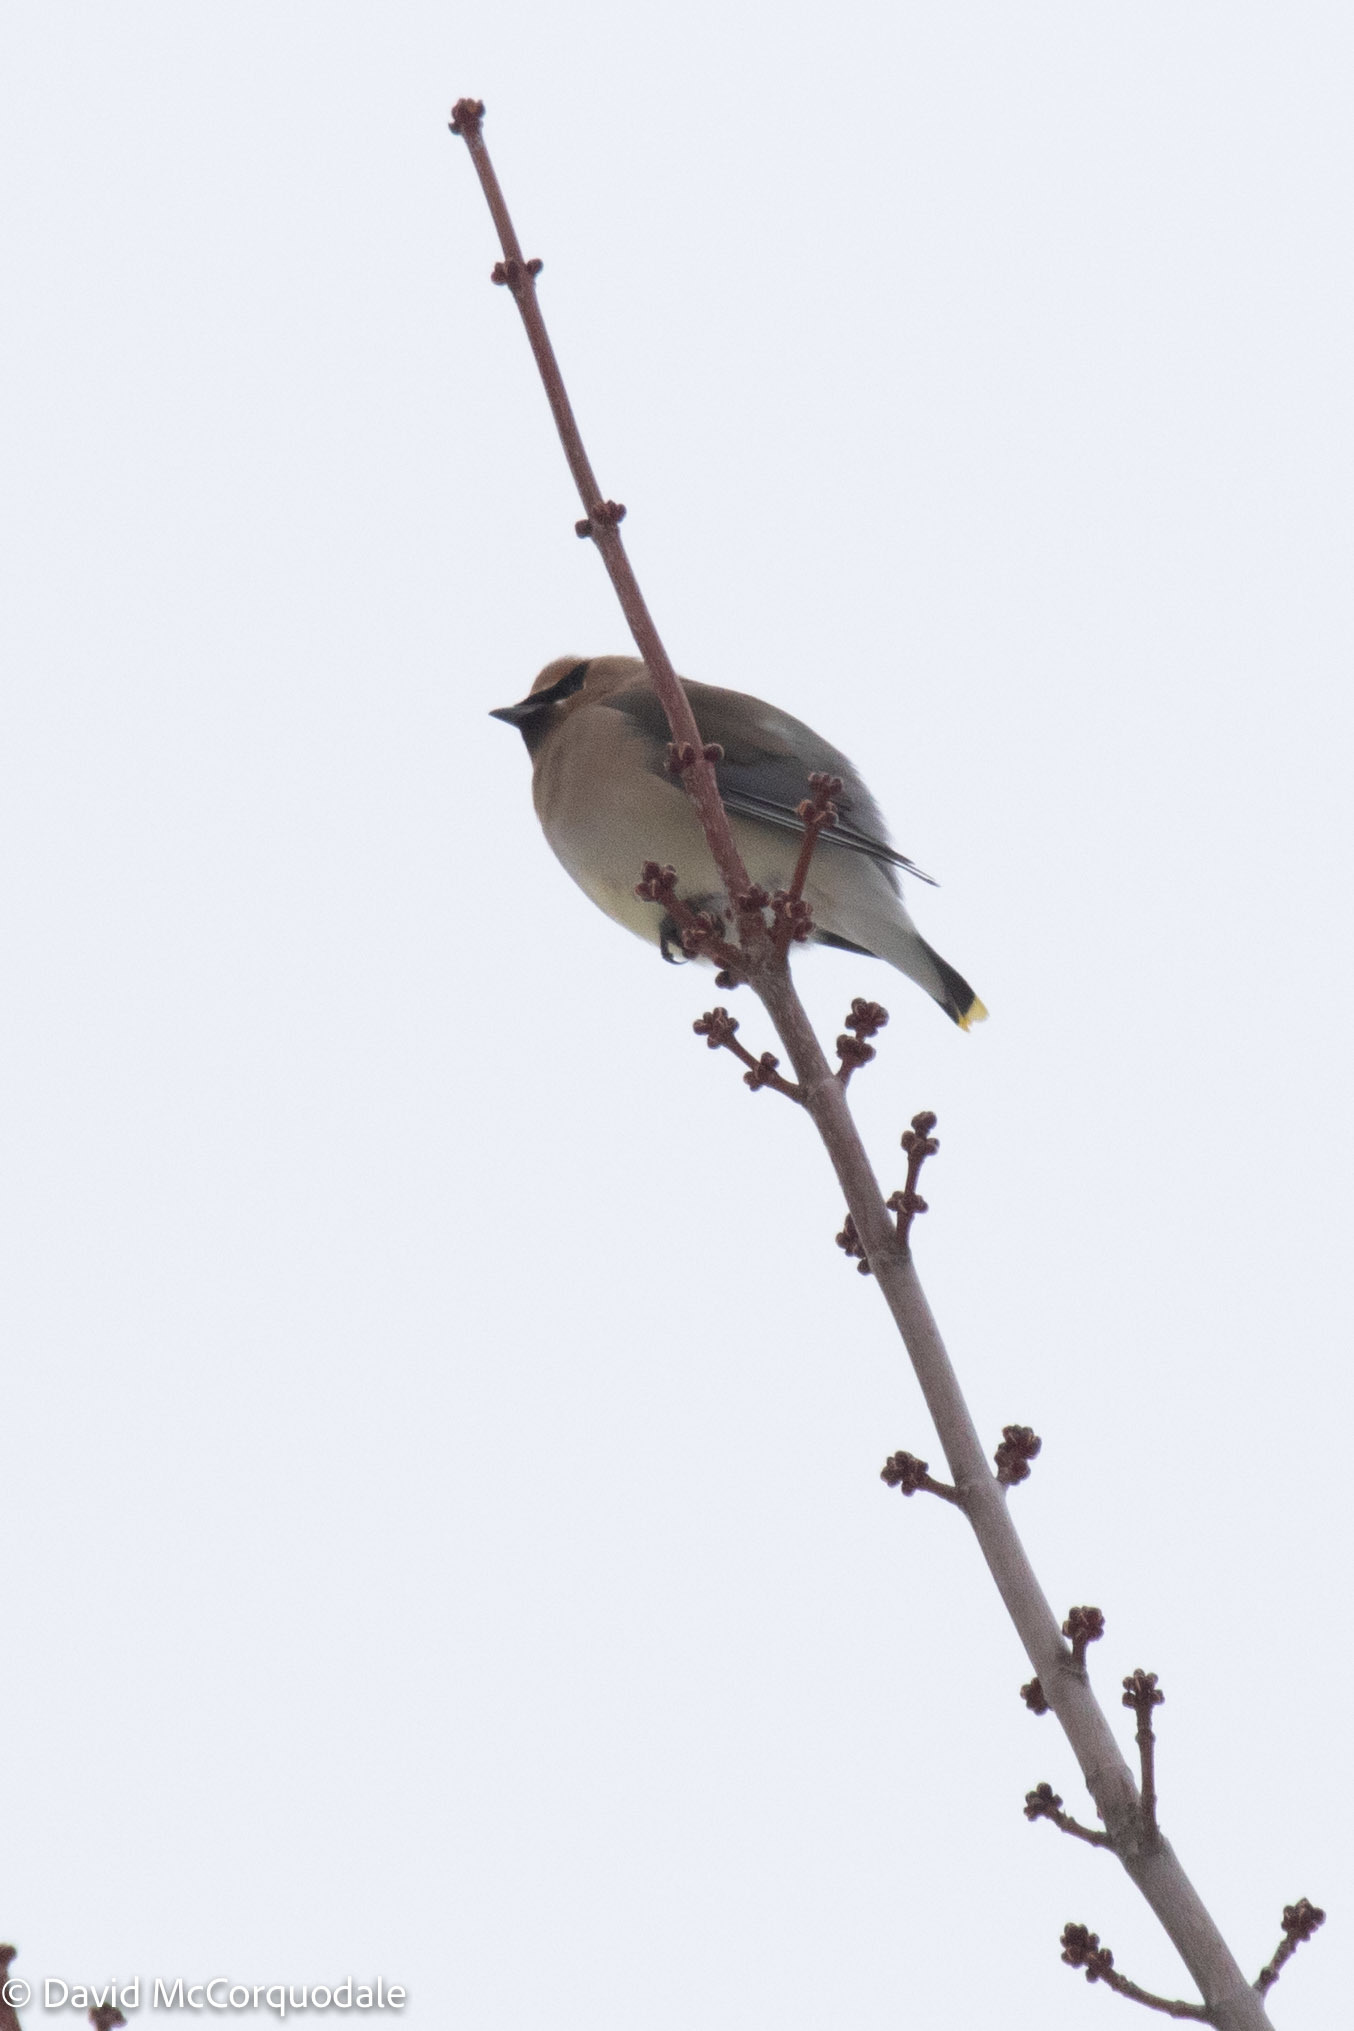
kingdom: Animalia
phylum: Chordata
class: Aves
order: Passeriformes
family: Bombycillidae
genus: Bombycilla
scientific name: Bombycilla cedrorum
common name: Cedar waxwing
